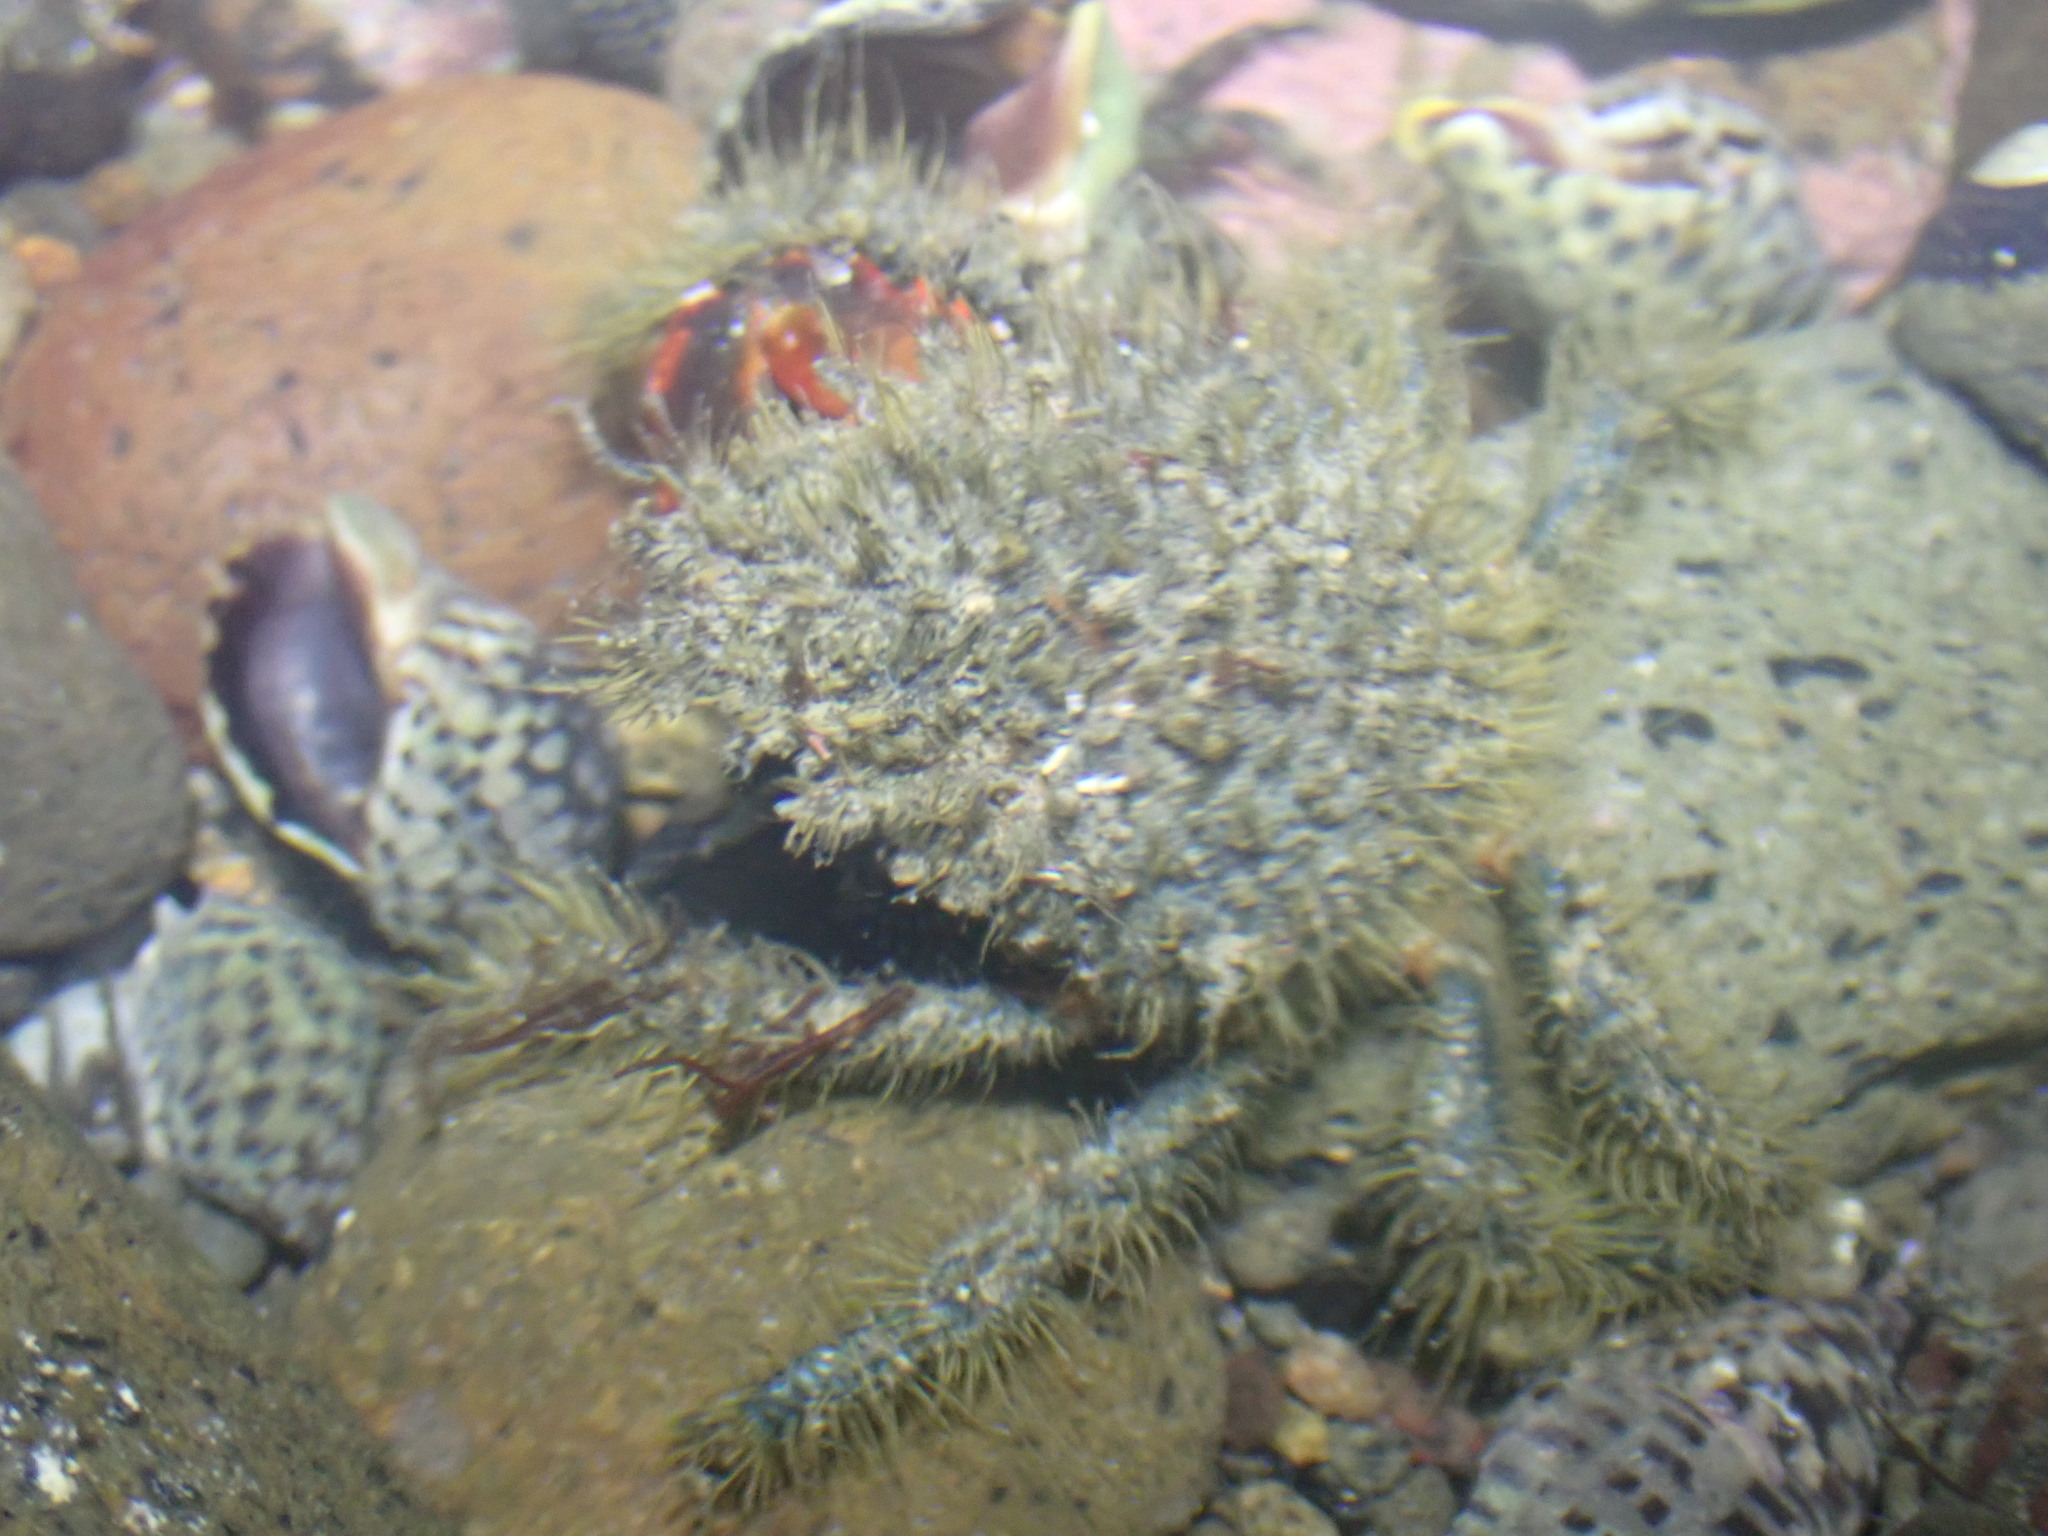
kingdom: Animalia
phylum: Arthropoda
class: Malacostraca
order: Decapoda
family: Majidae
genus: Notomithrax
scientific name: Notomithrax ursus
